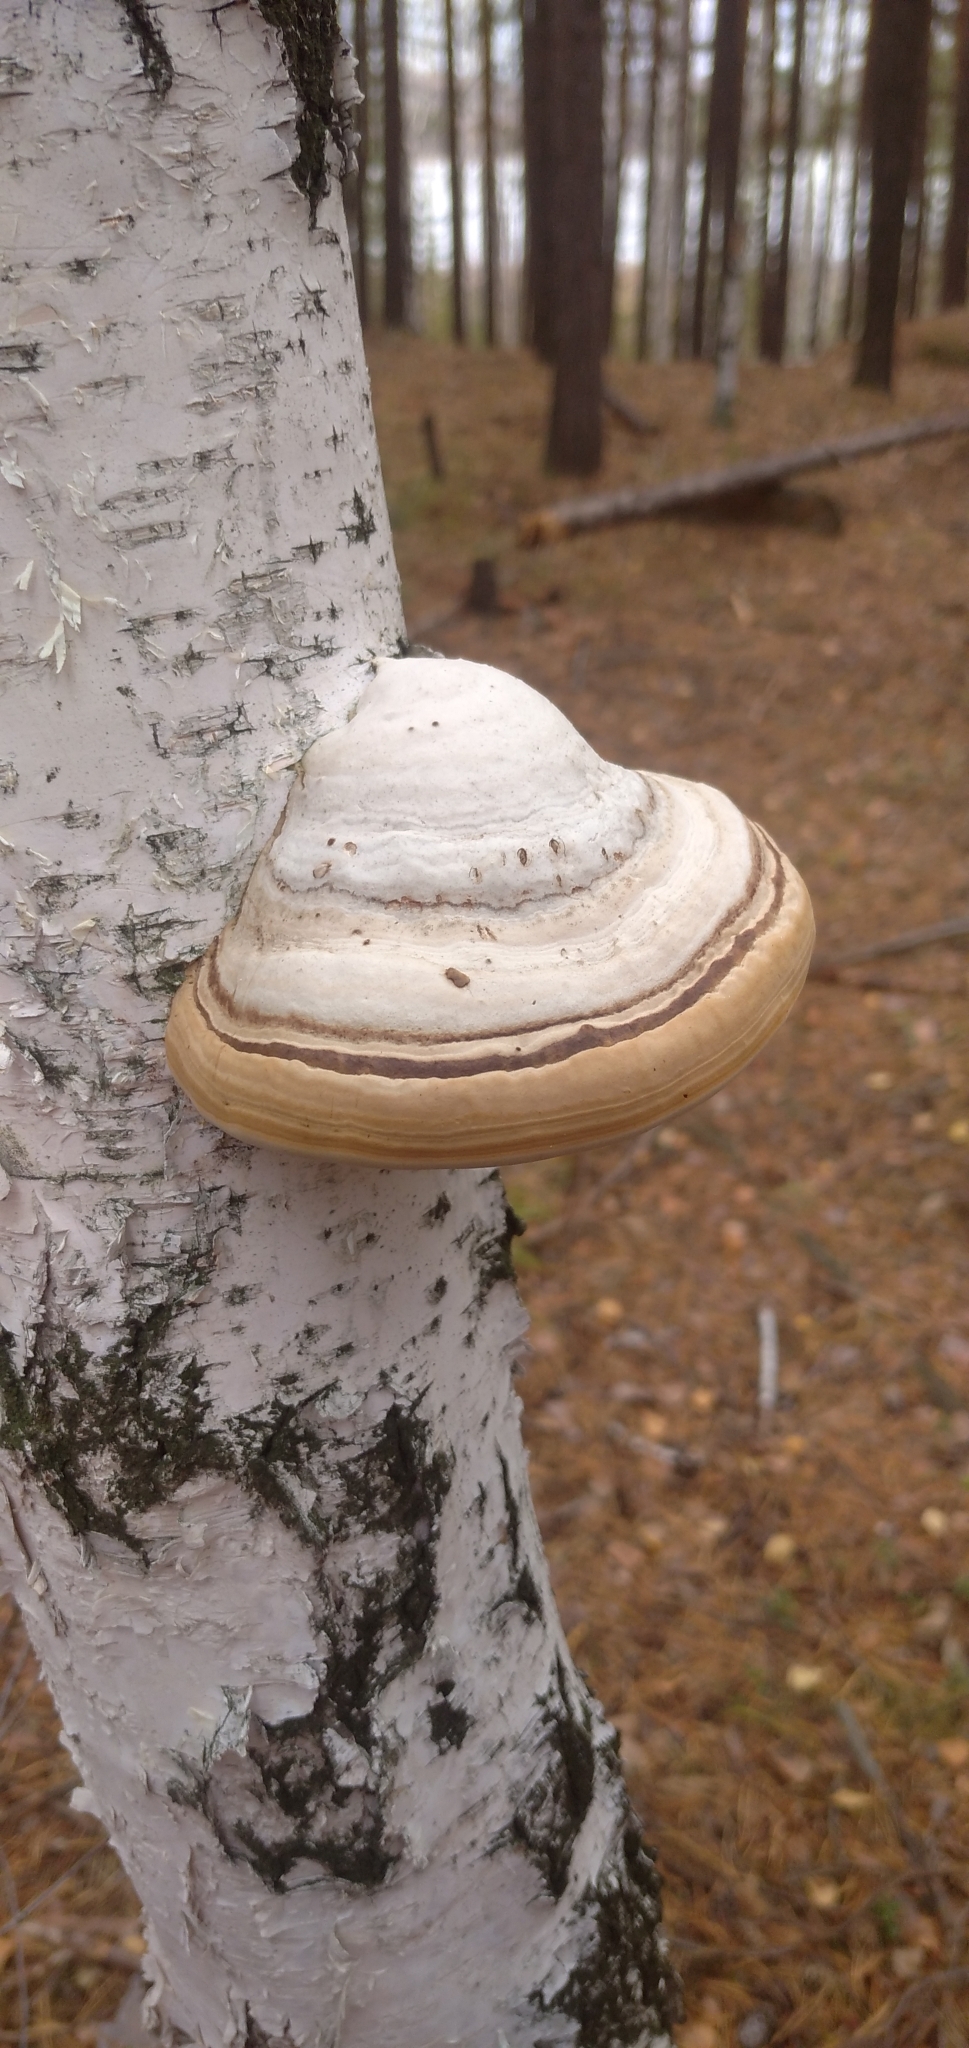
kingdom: Fungi
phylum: Basidiomycota
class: Agaricomycetes
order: Polyporales
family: Polyporaceae
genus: Fomes
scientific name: Fomes fomentarius
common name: Hoof fungus
